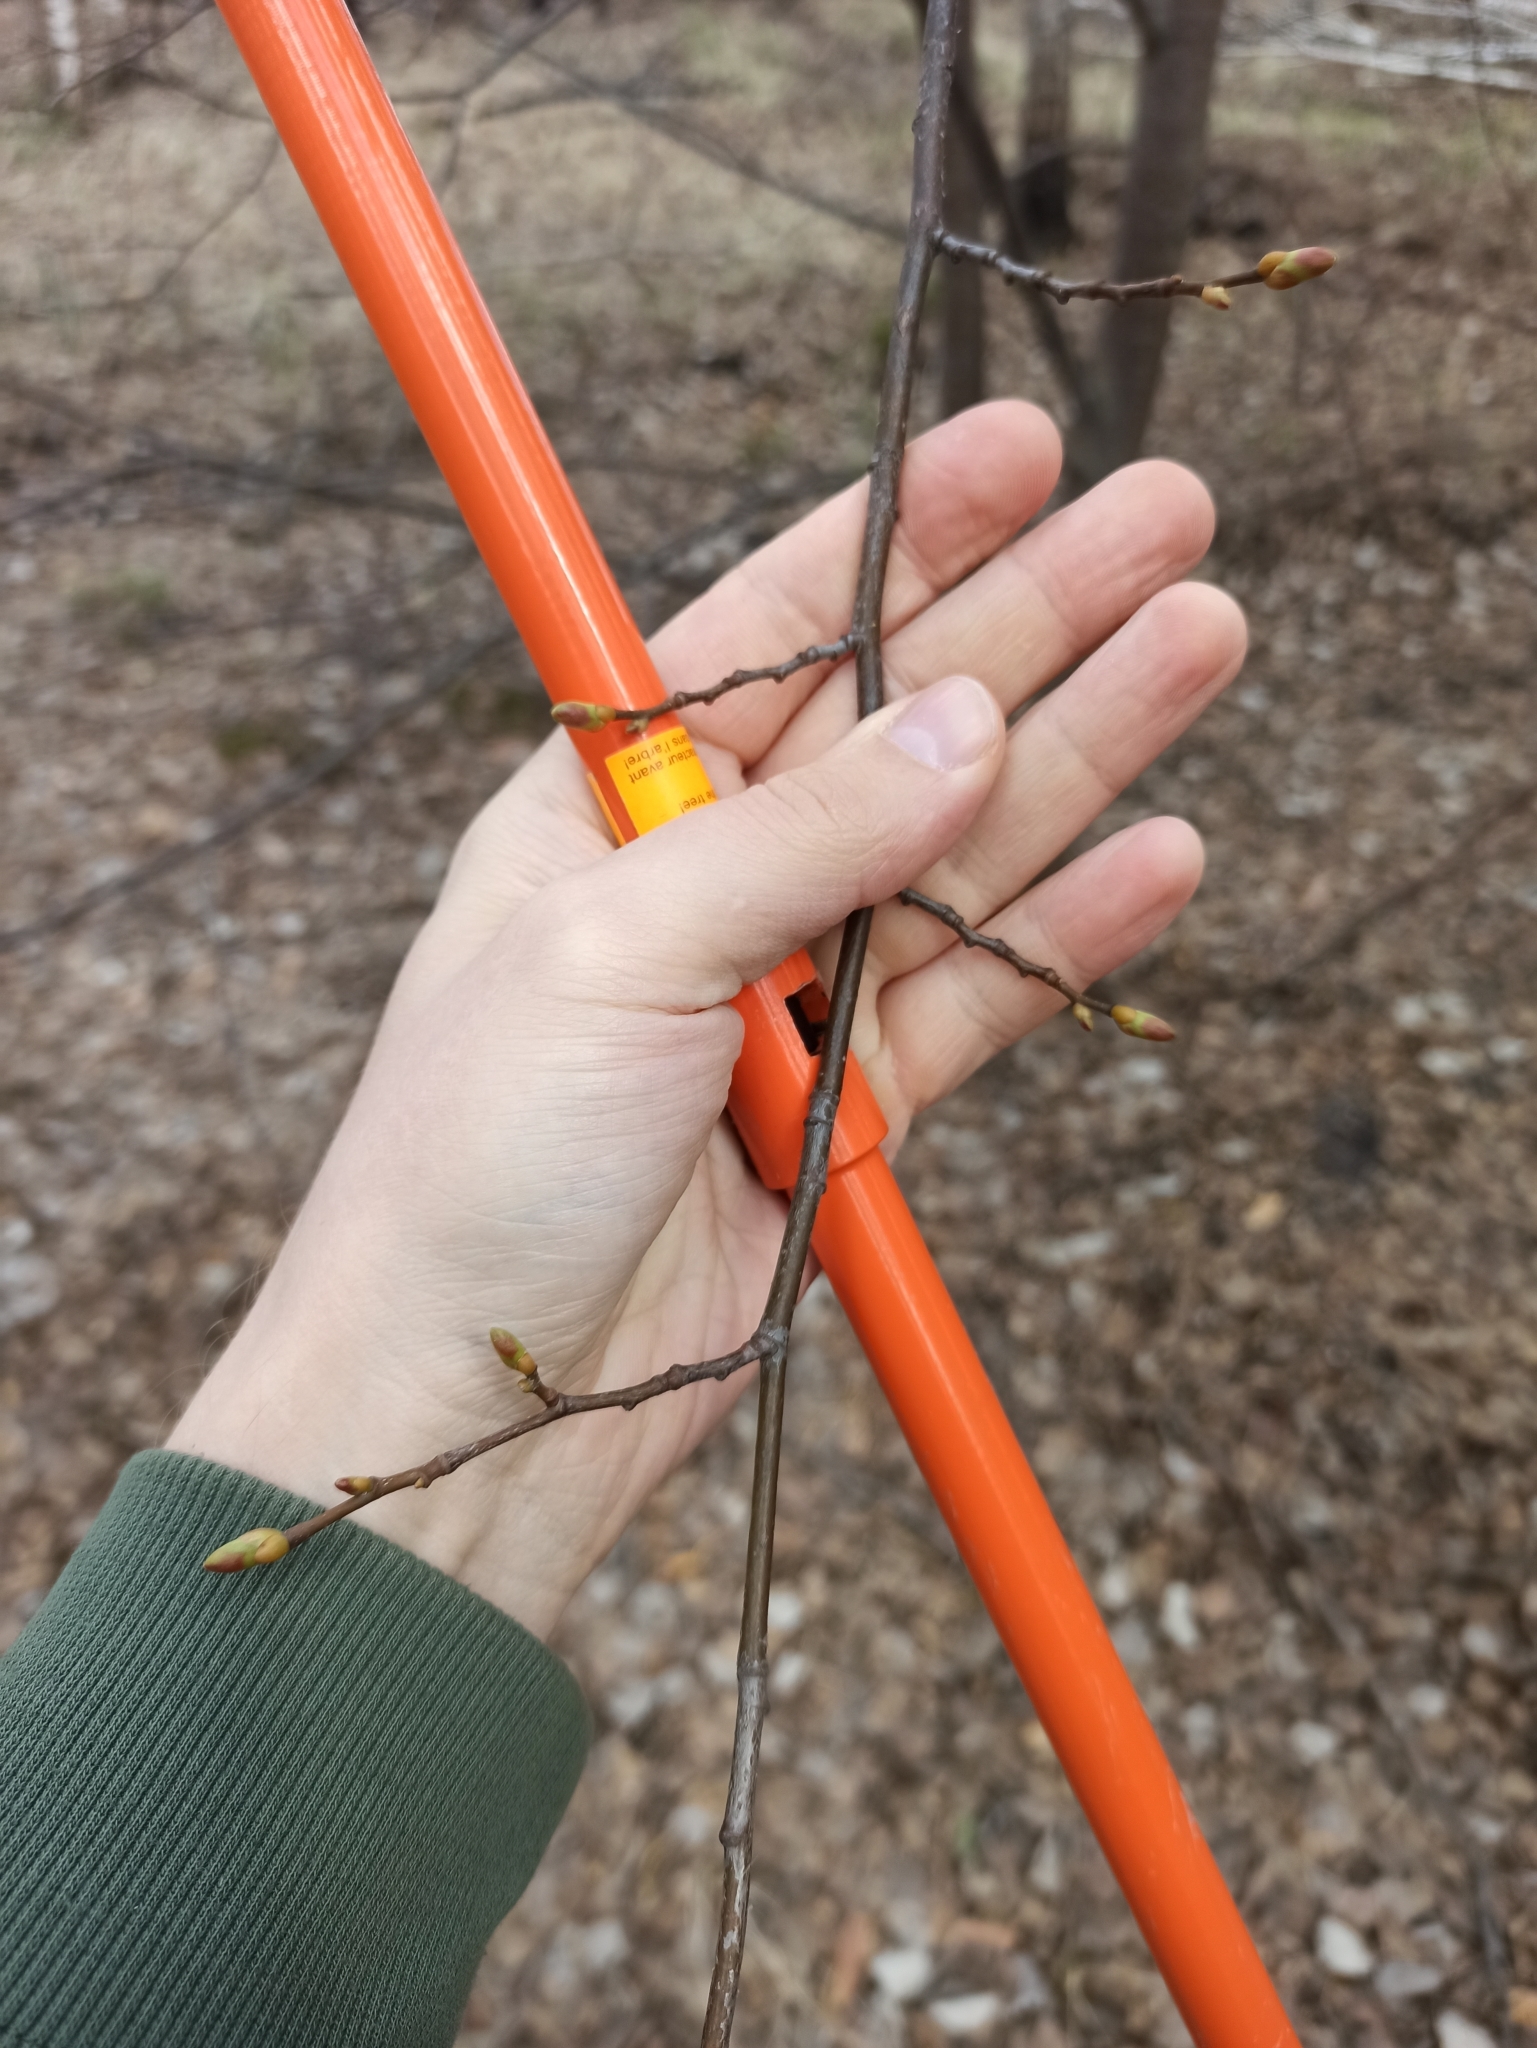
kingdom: Plantae
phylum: Tracheophyta
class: Magnoliopsida
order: Malvales
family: Malvaceae
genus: Tilia
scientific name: Tilia cordata
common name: Small-leaved lime
